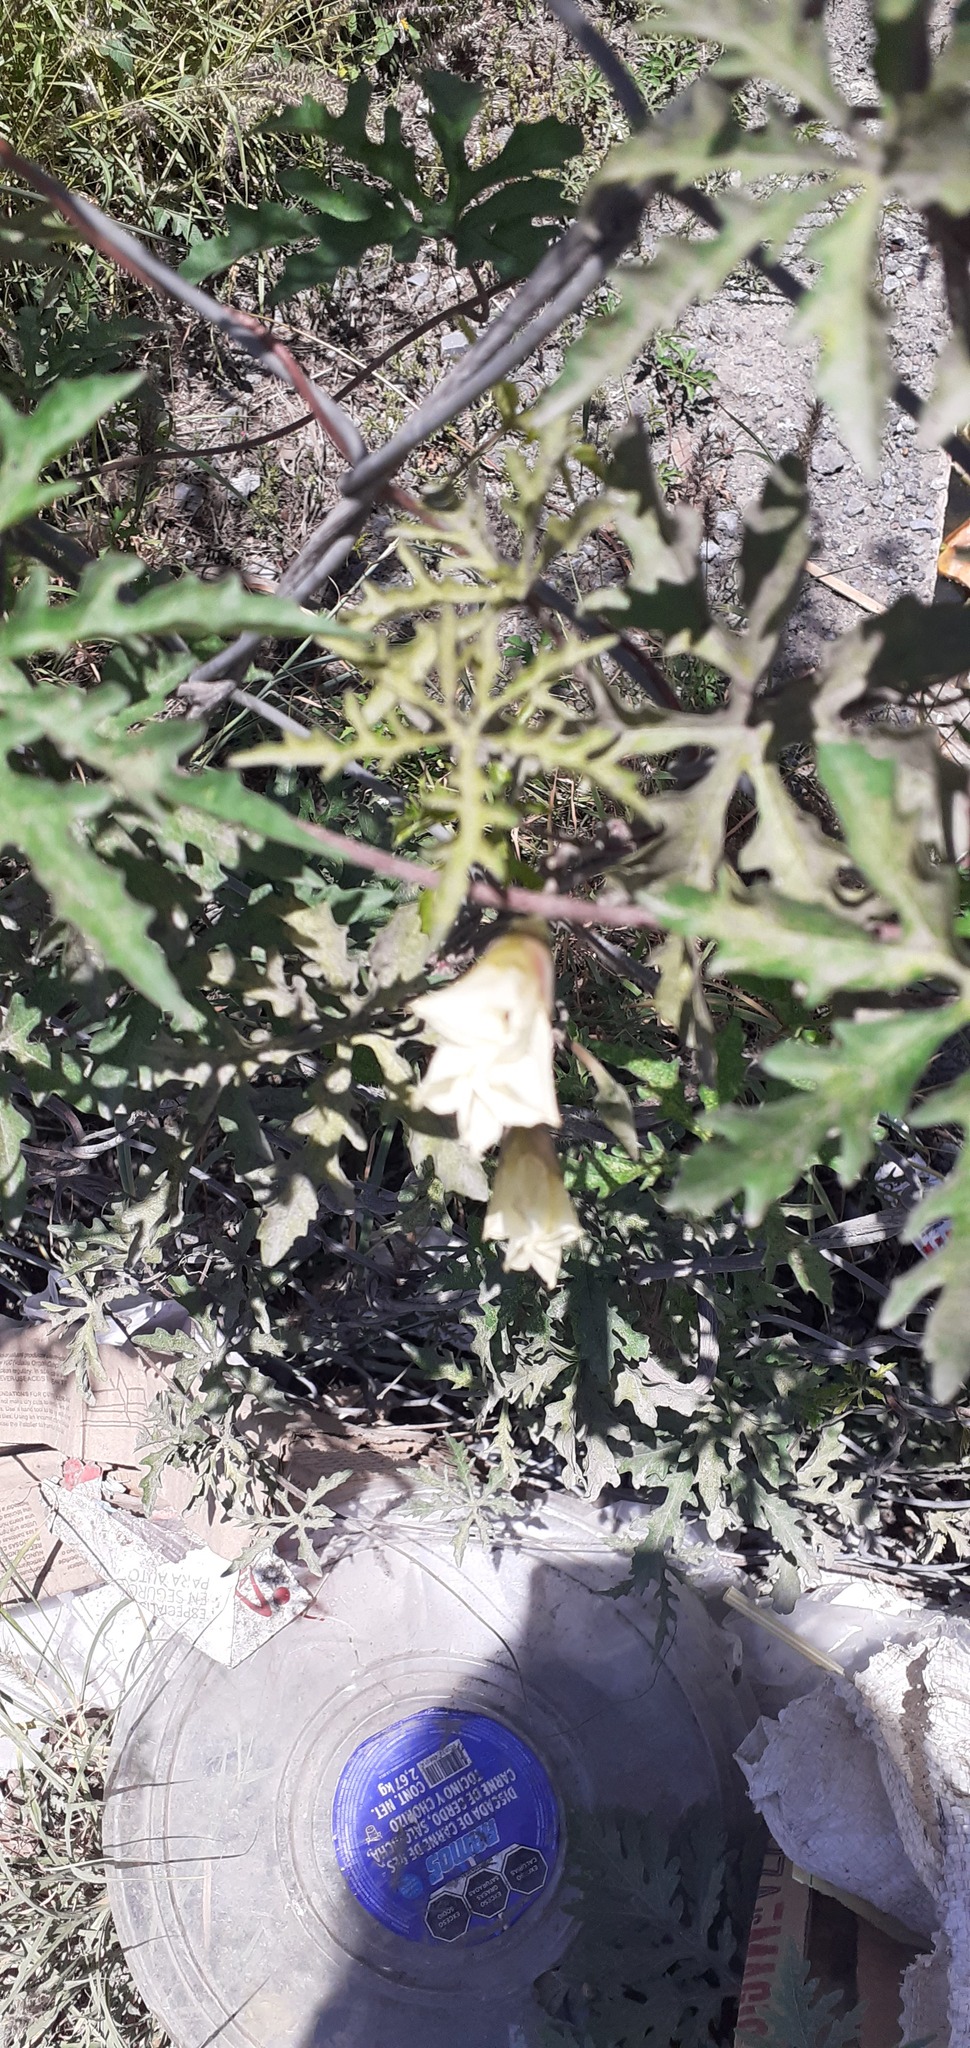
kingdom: Plantae
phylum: Tracheophyta
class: Magnoliopsida
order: Solanales
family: Convolvulaceae
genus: Distimake
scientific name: Distimake dissectus
